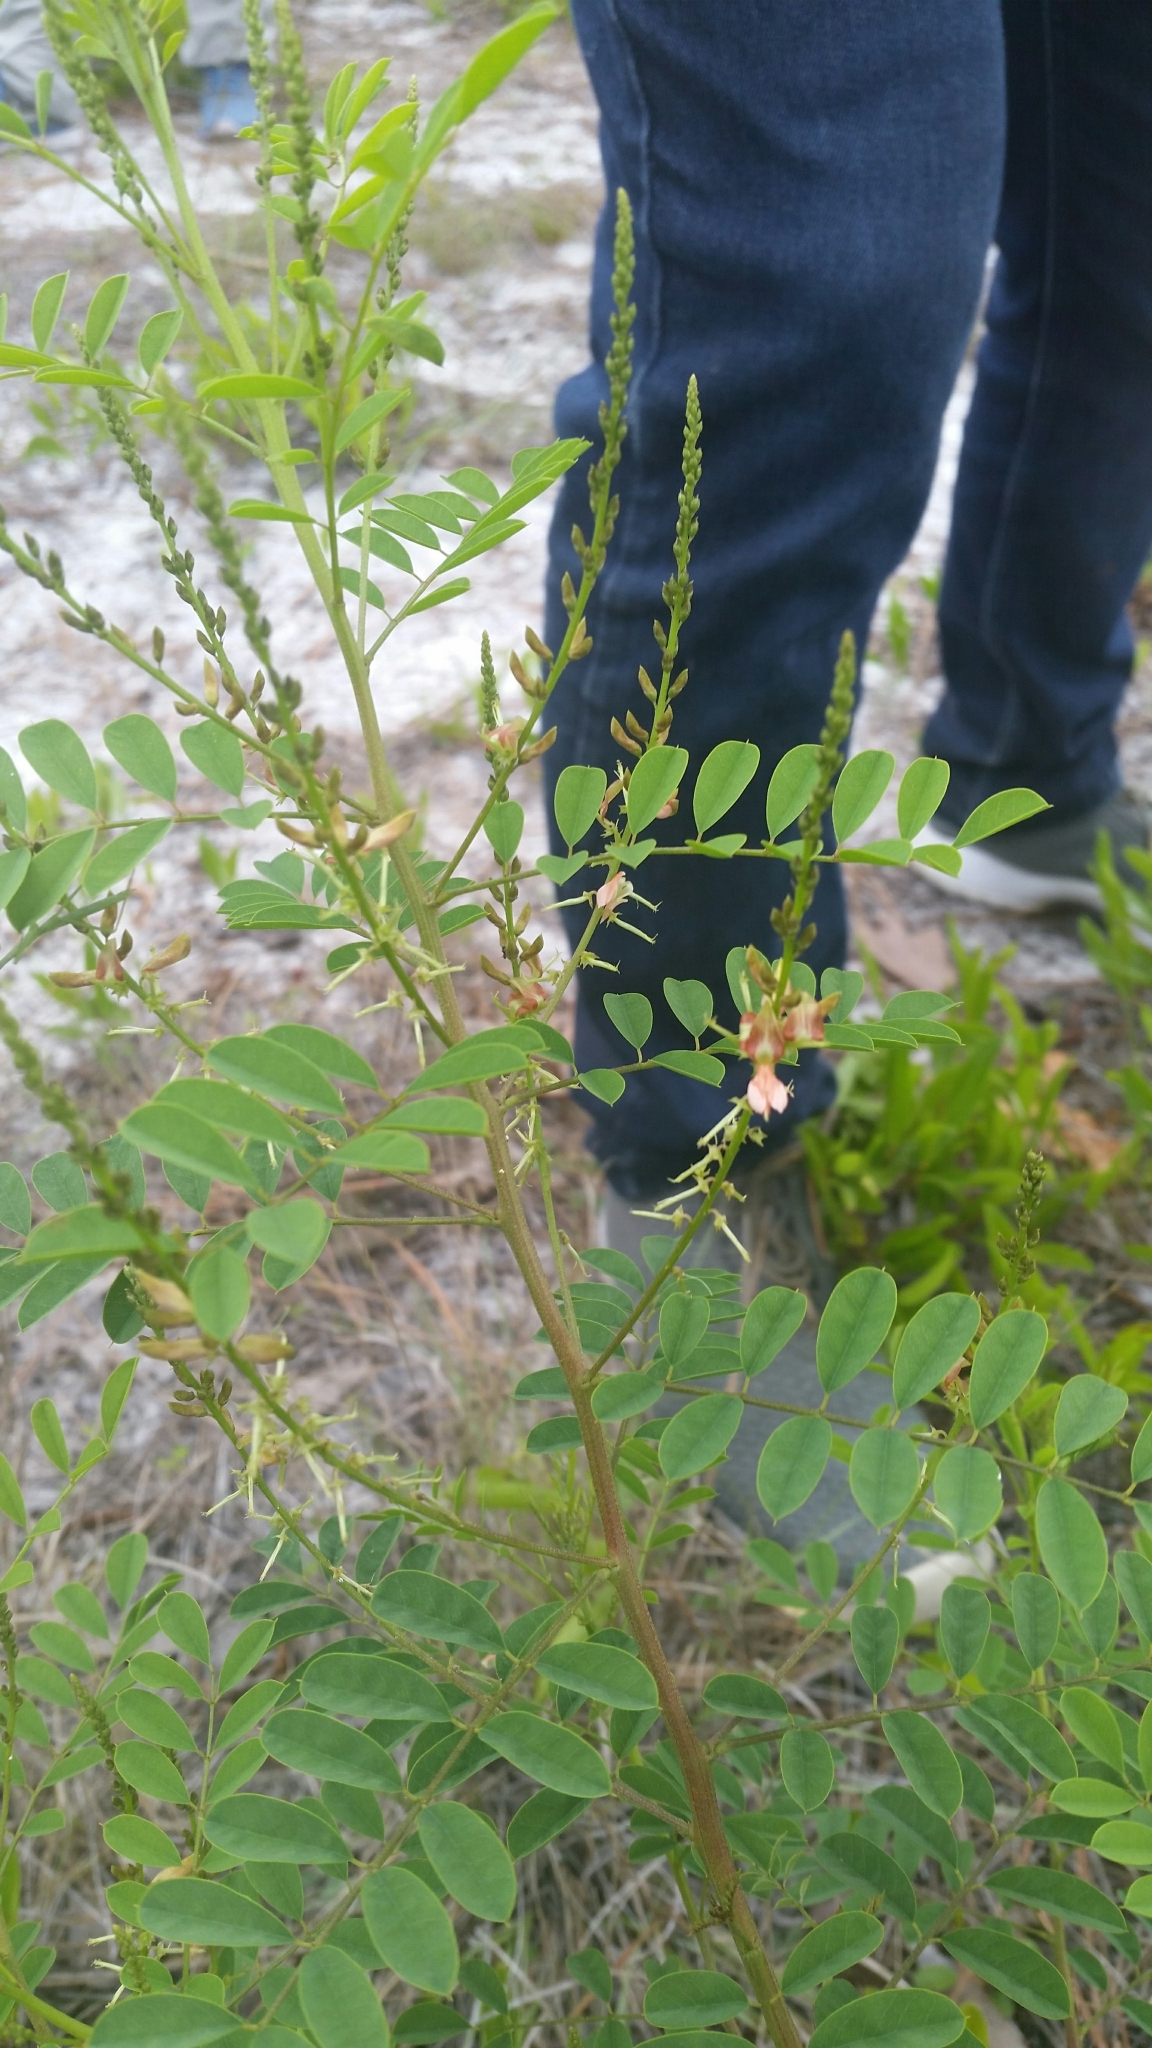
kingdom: Plantae
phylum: Tracheophyta
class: Magnoliopsida
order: Fabales
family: Fabaceae
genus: Indigofera
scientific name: Indigofera caroliniana
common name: Wild indigo
